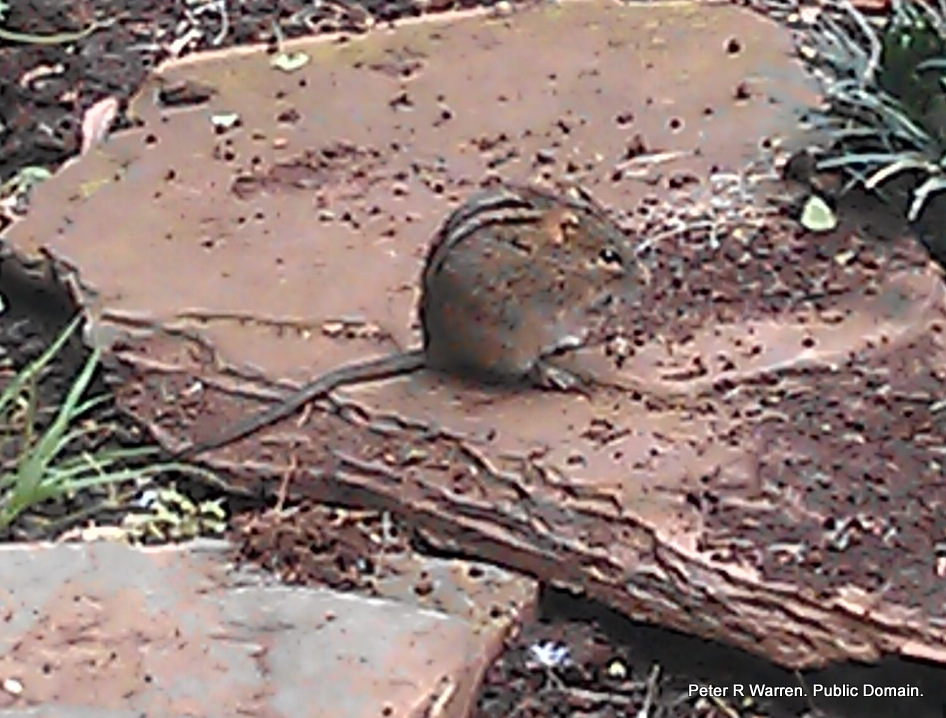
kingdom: Animalia
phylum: Chordata
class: Mammalia
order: Rodentia
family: Muridae
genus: Rhabdomys
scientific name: Rhabdomys dilectus
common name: Mesic four-striped grass rat
